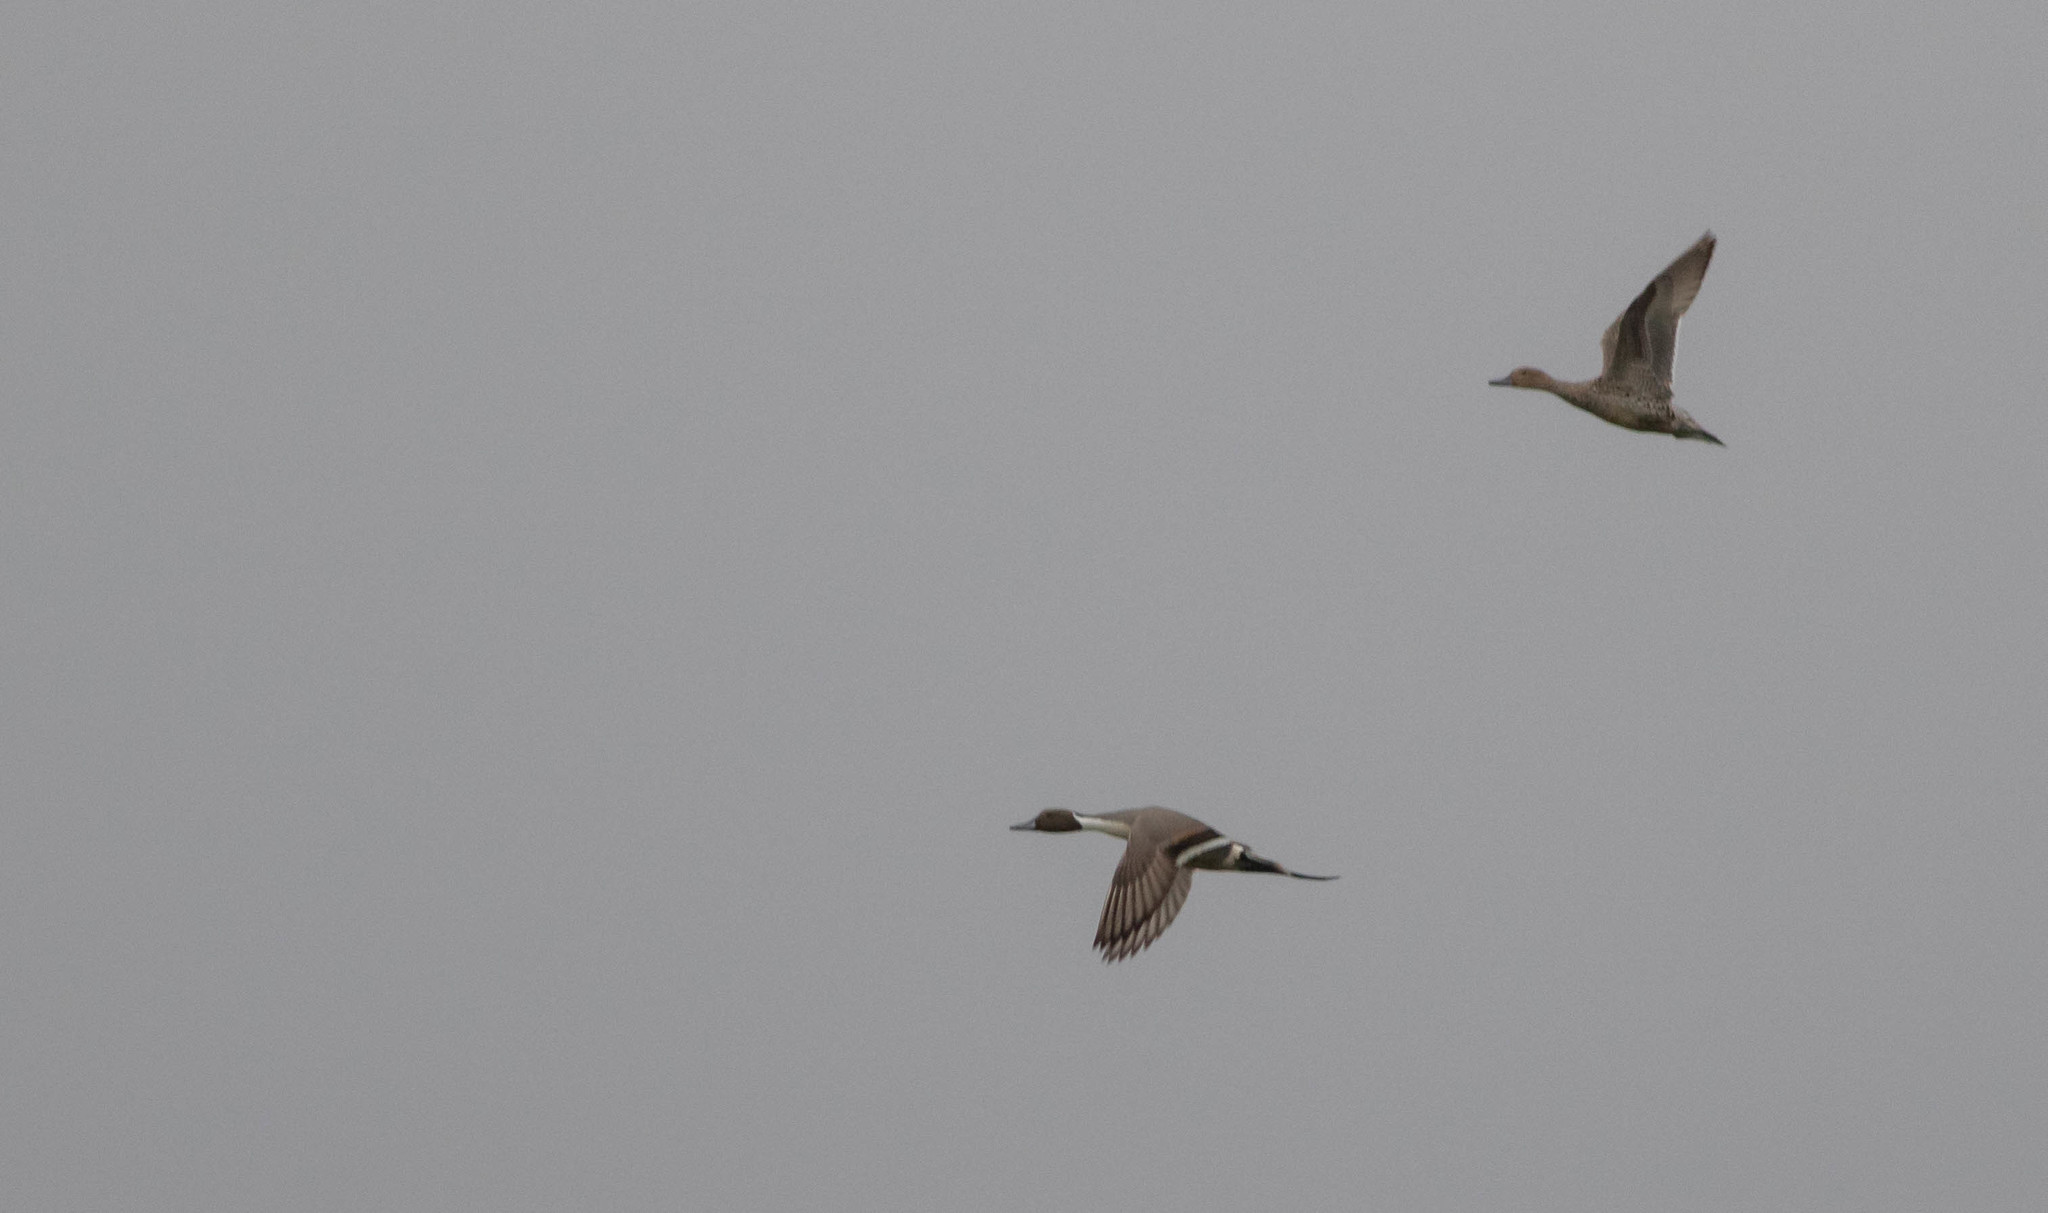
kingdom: Animalia
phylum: Chordata
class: Aves
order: Anseriformes
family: Anatidae
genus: Anas
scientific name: Anas acuta
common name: Northern pintail
